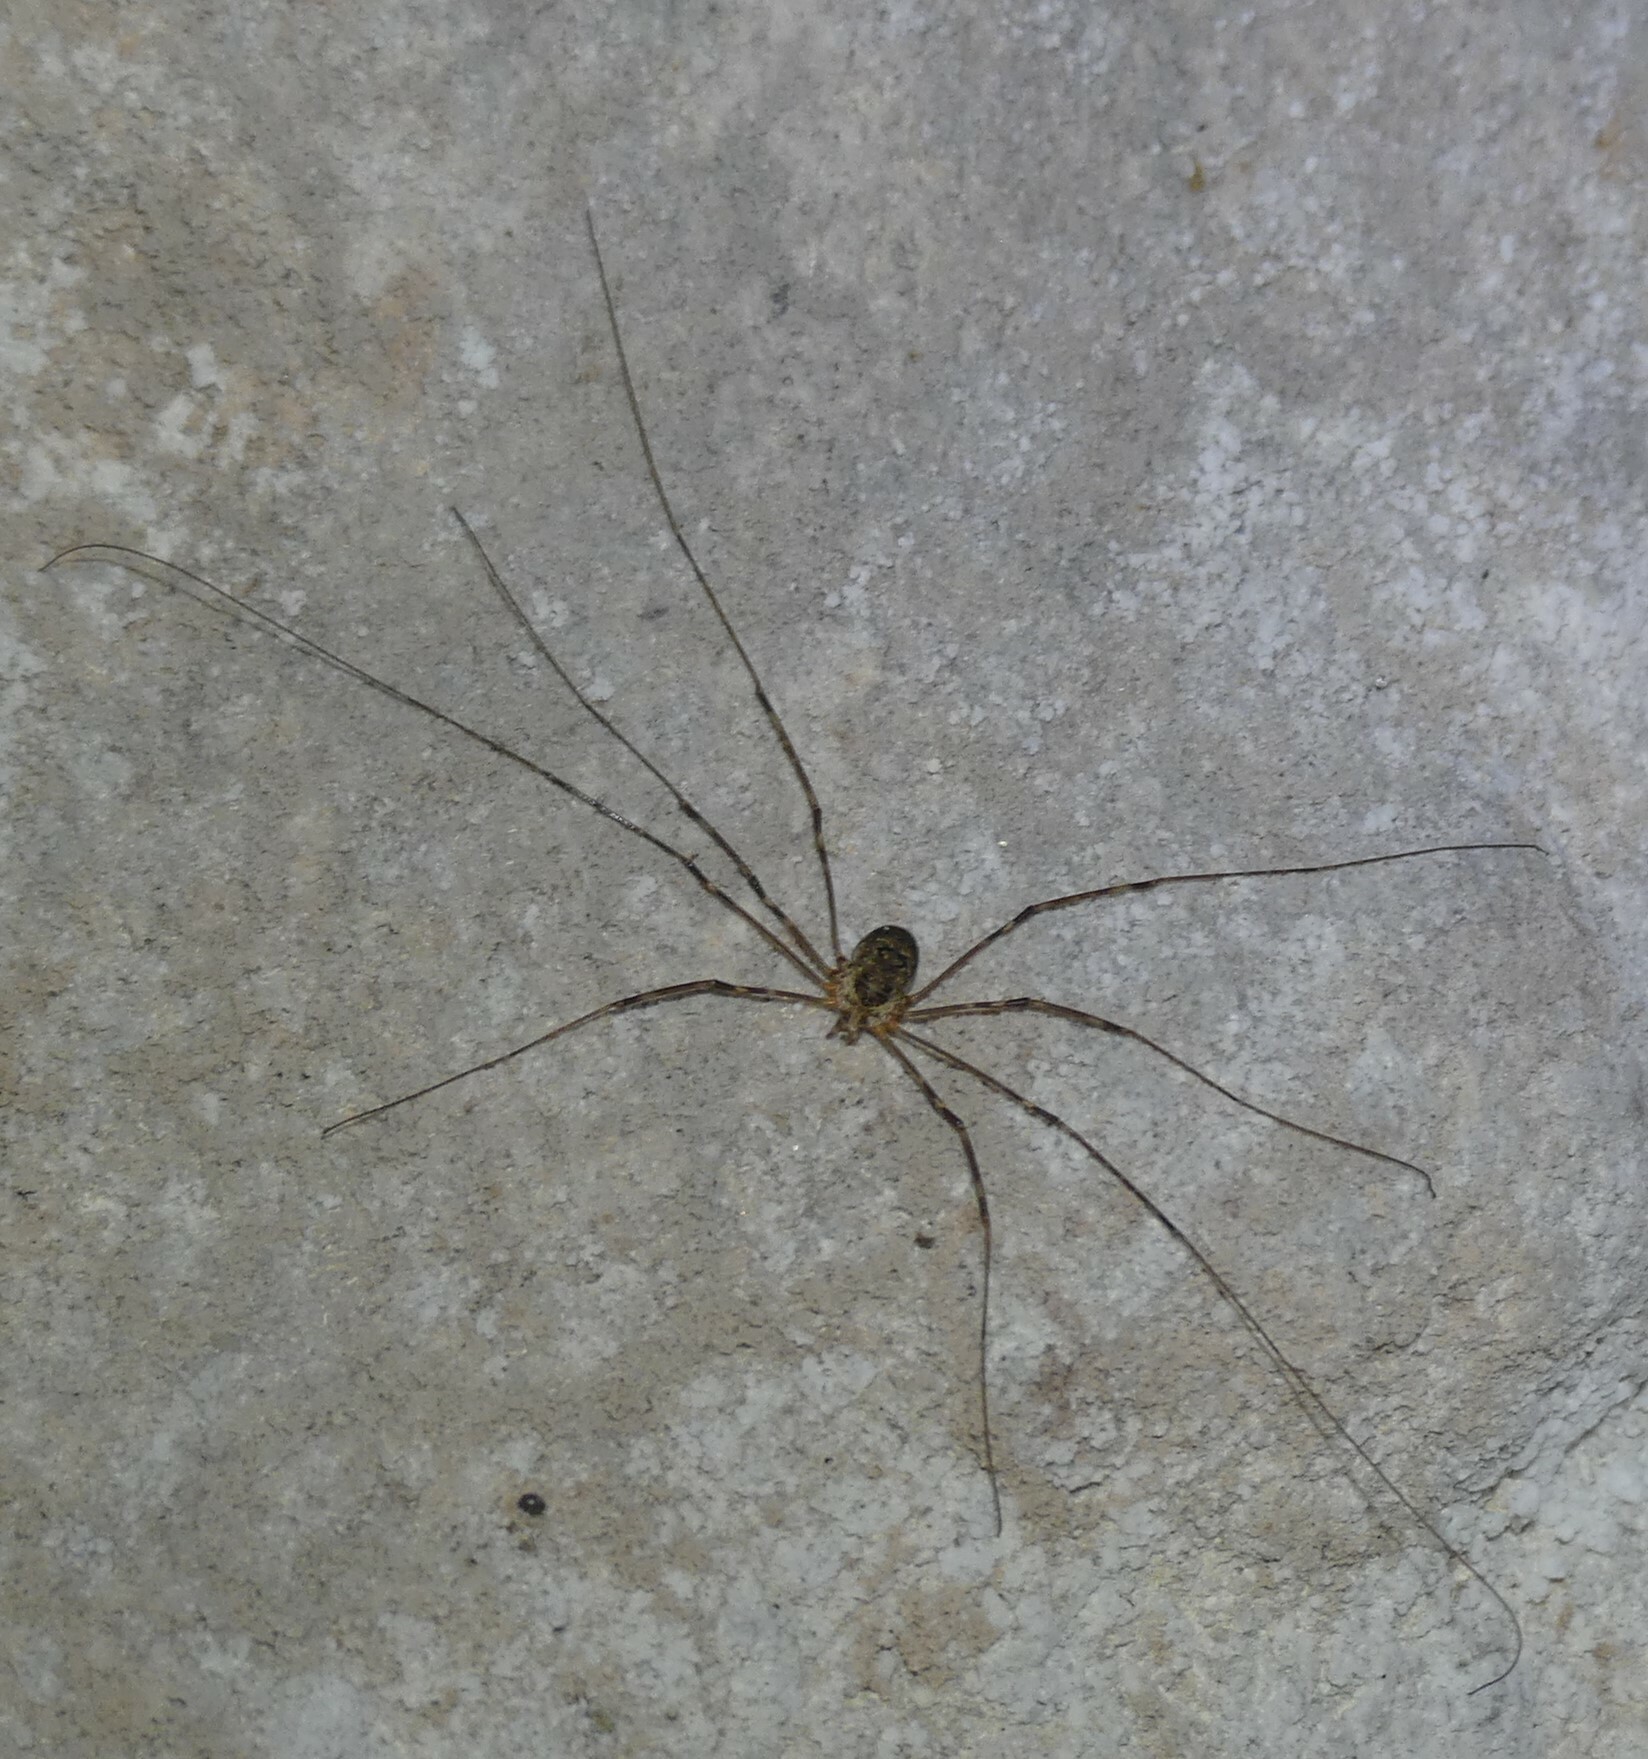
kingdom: Animalia
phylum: Arthropoda
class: Arachnida
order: Opiliones
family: Phalangiidae
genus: Amilenus
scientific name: Amilenus aurantiacus
